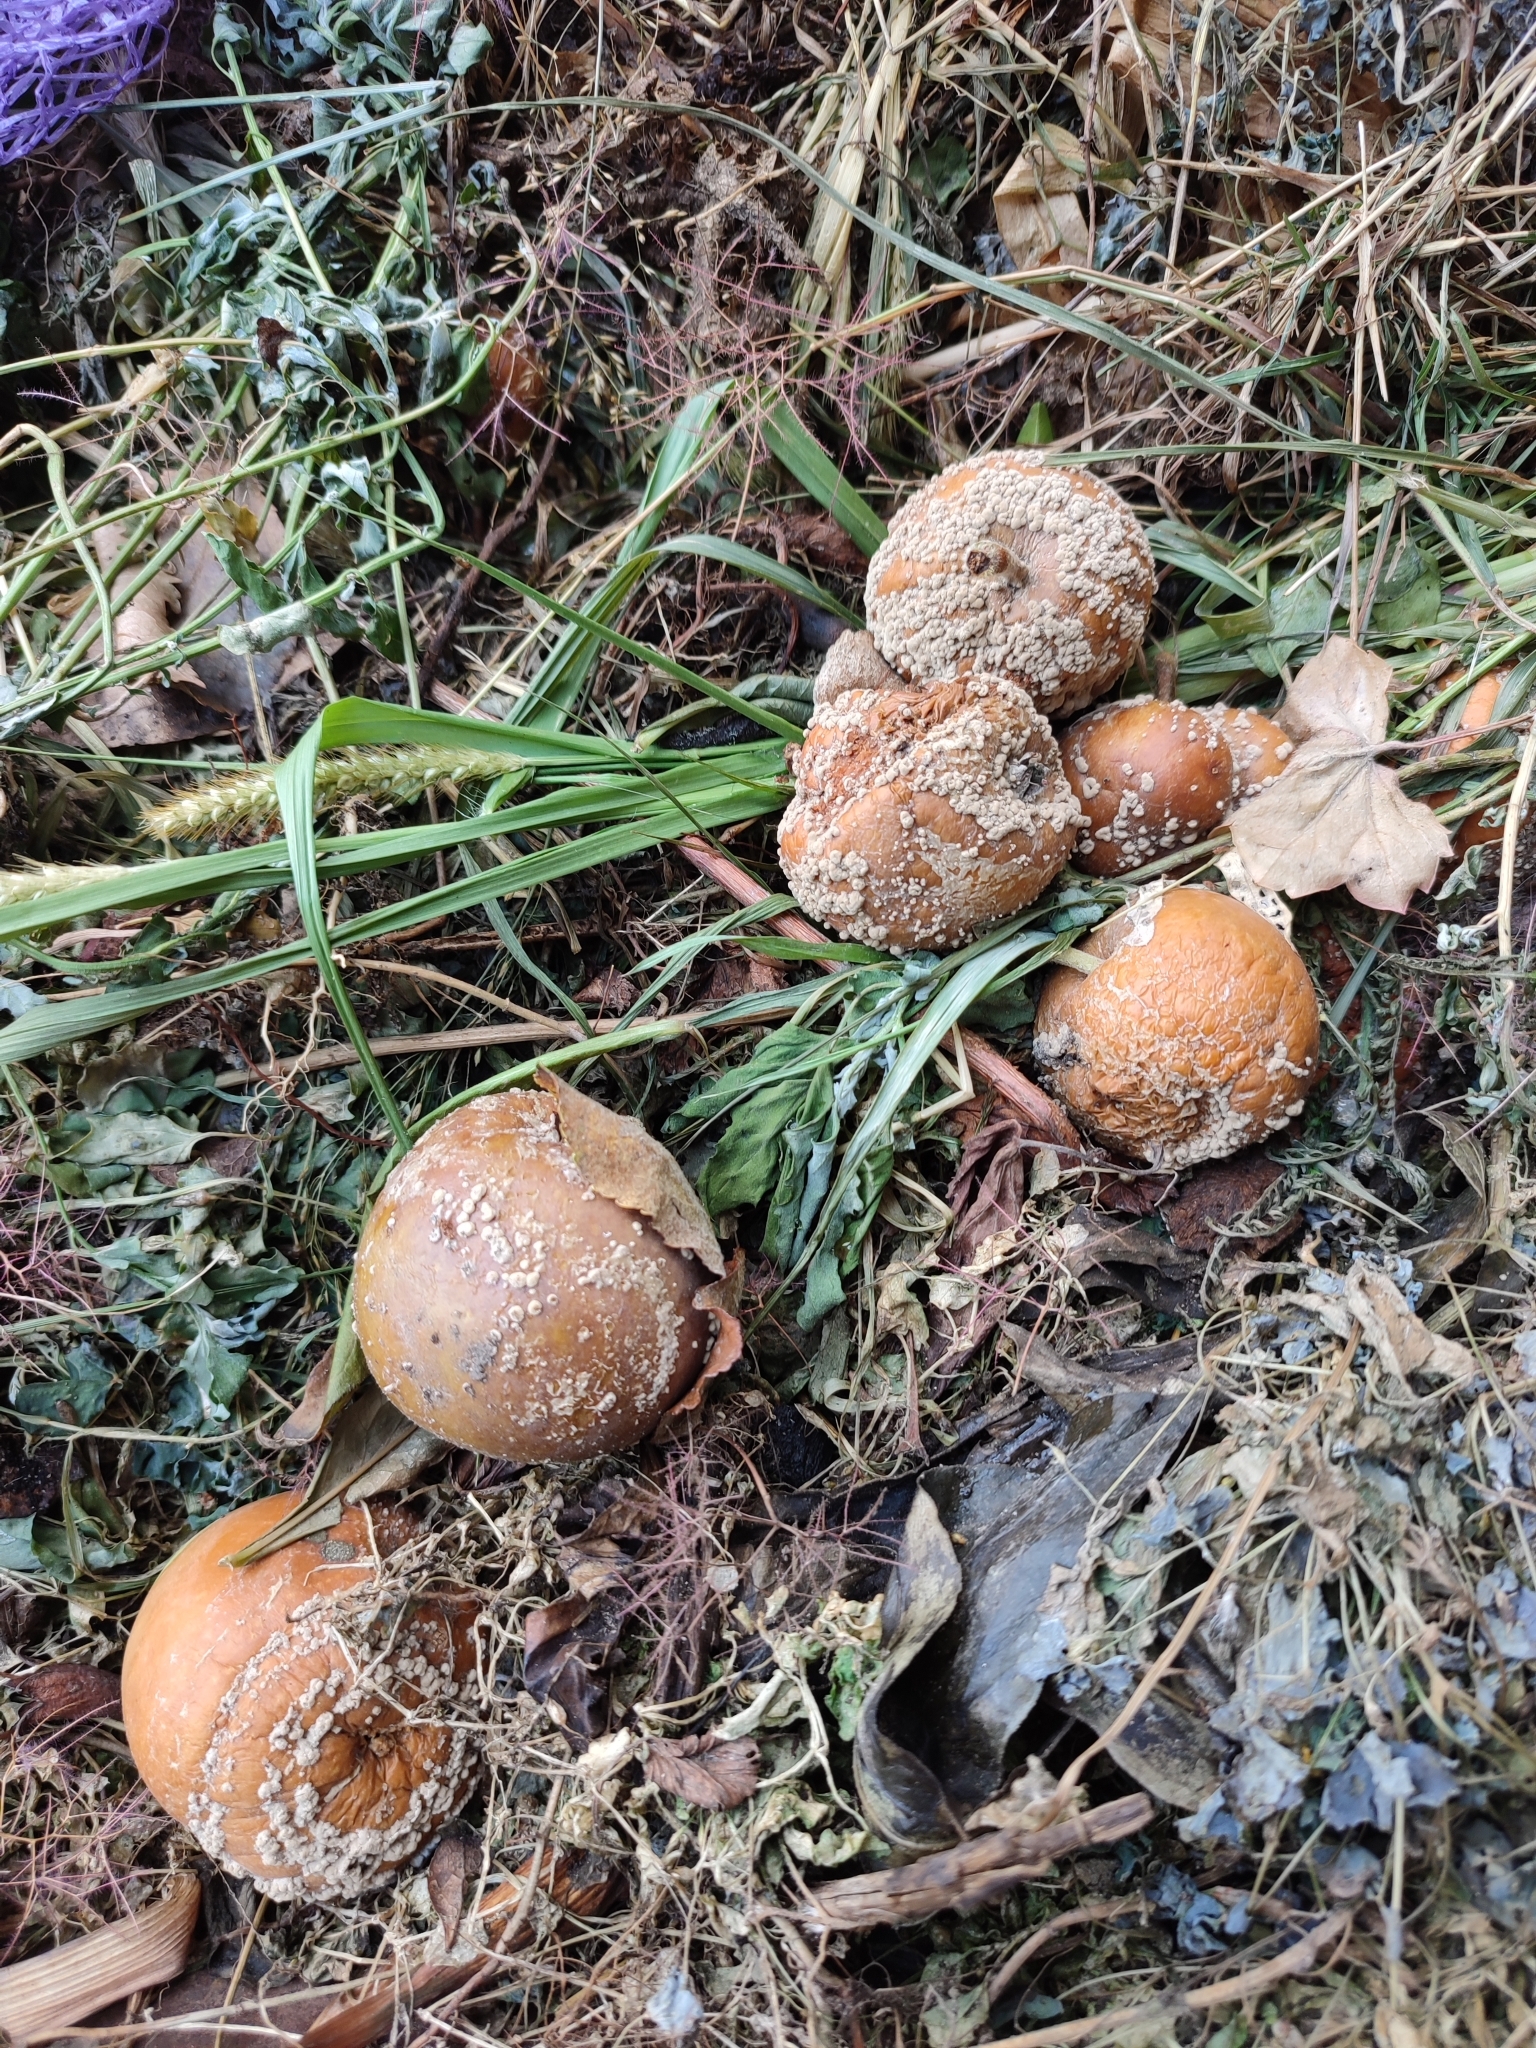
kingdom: Fungi
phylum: Ascomycota
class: Leotiomycetes
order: Helotiales
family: Sclerotiniaceae
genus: Monilinia
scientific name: Monilinia fructigena
